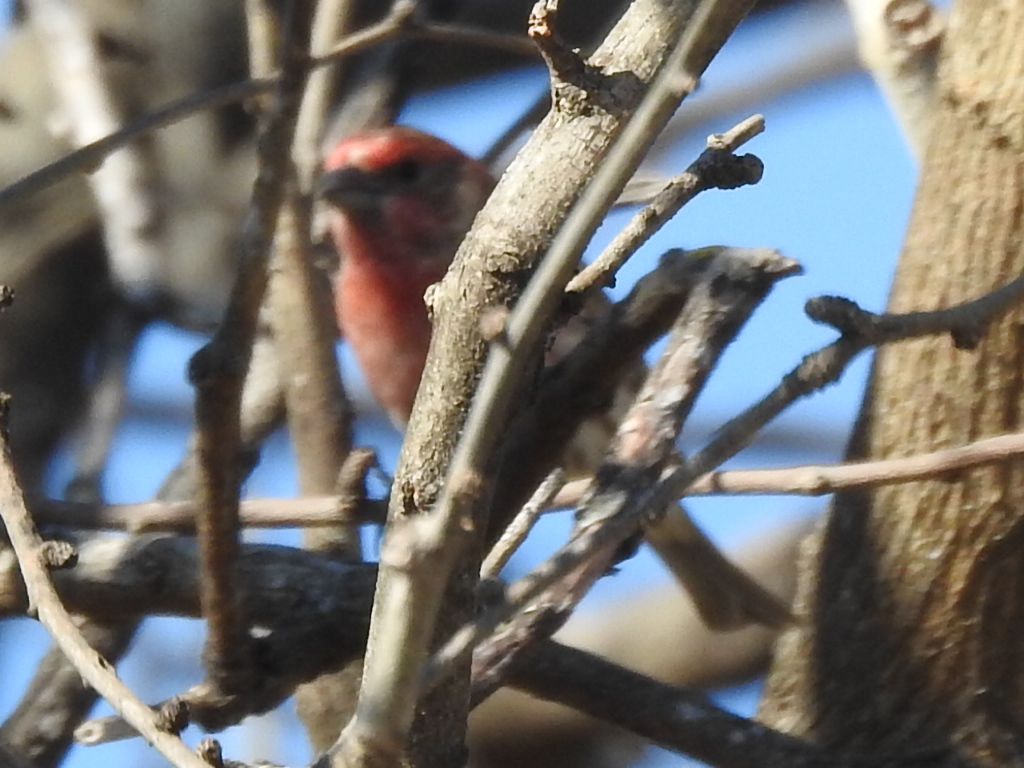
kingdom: Animalia
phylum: Chordata
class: Aves
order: Passeriformes
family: Fringillidae
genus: Haemorhous
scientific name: Haemorhous mexicanus
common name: House finch
